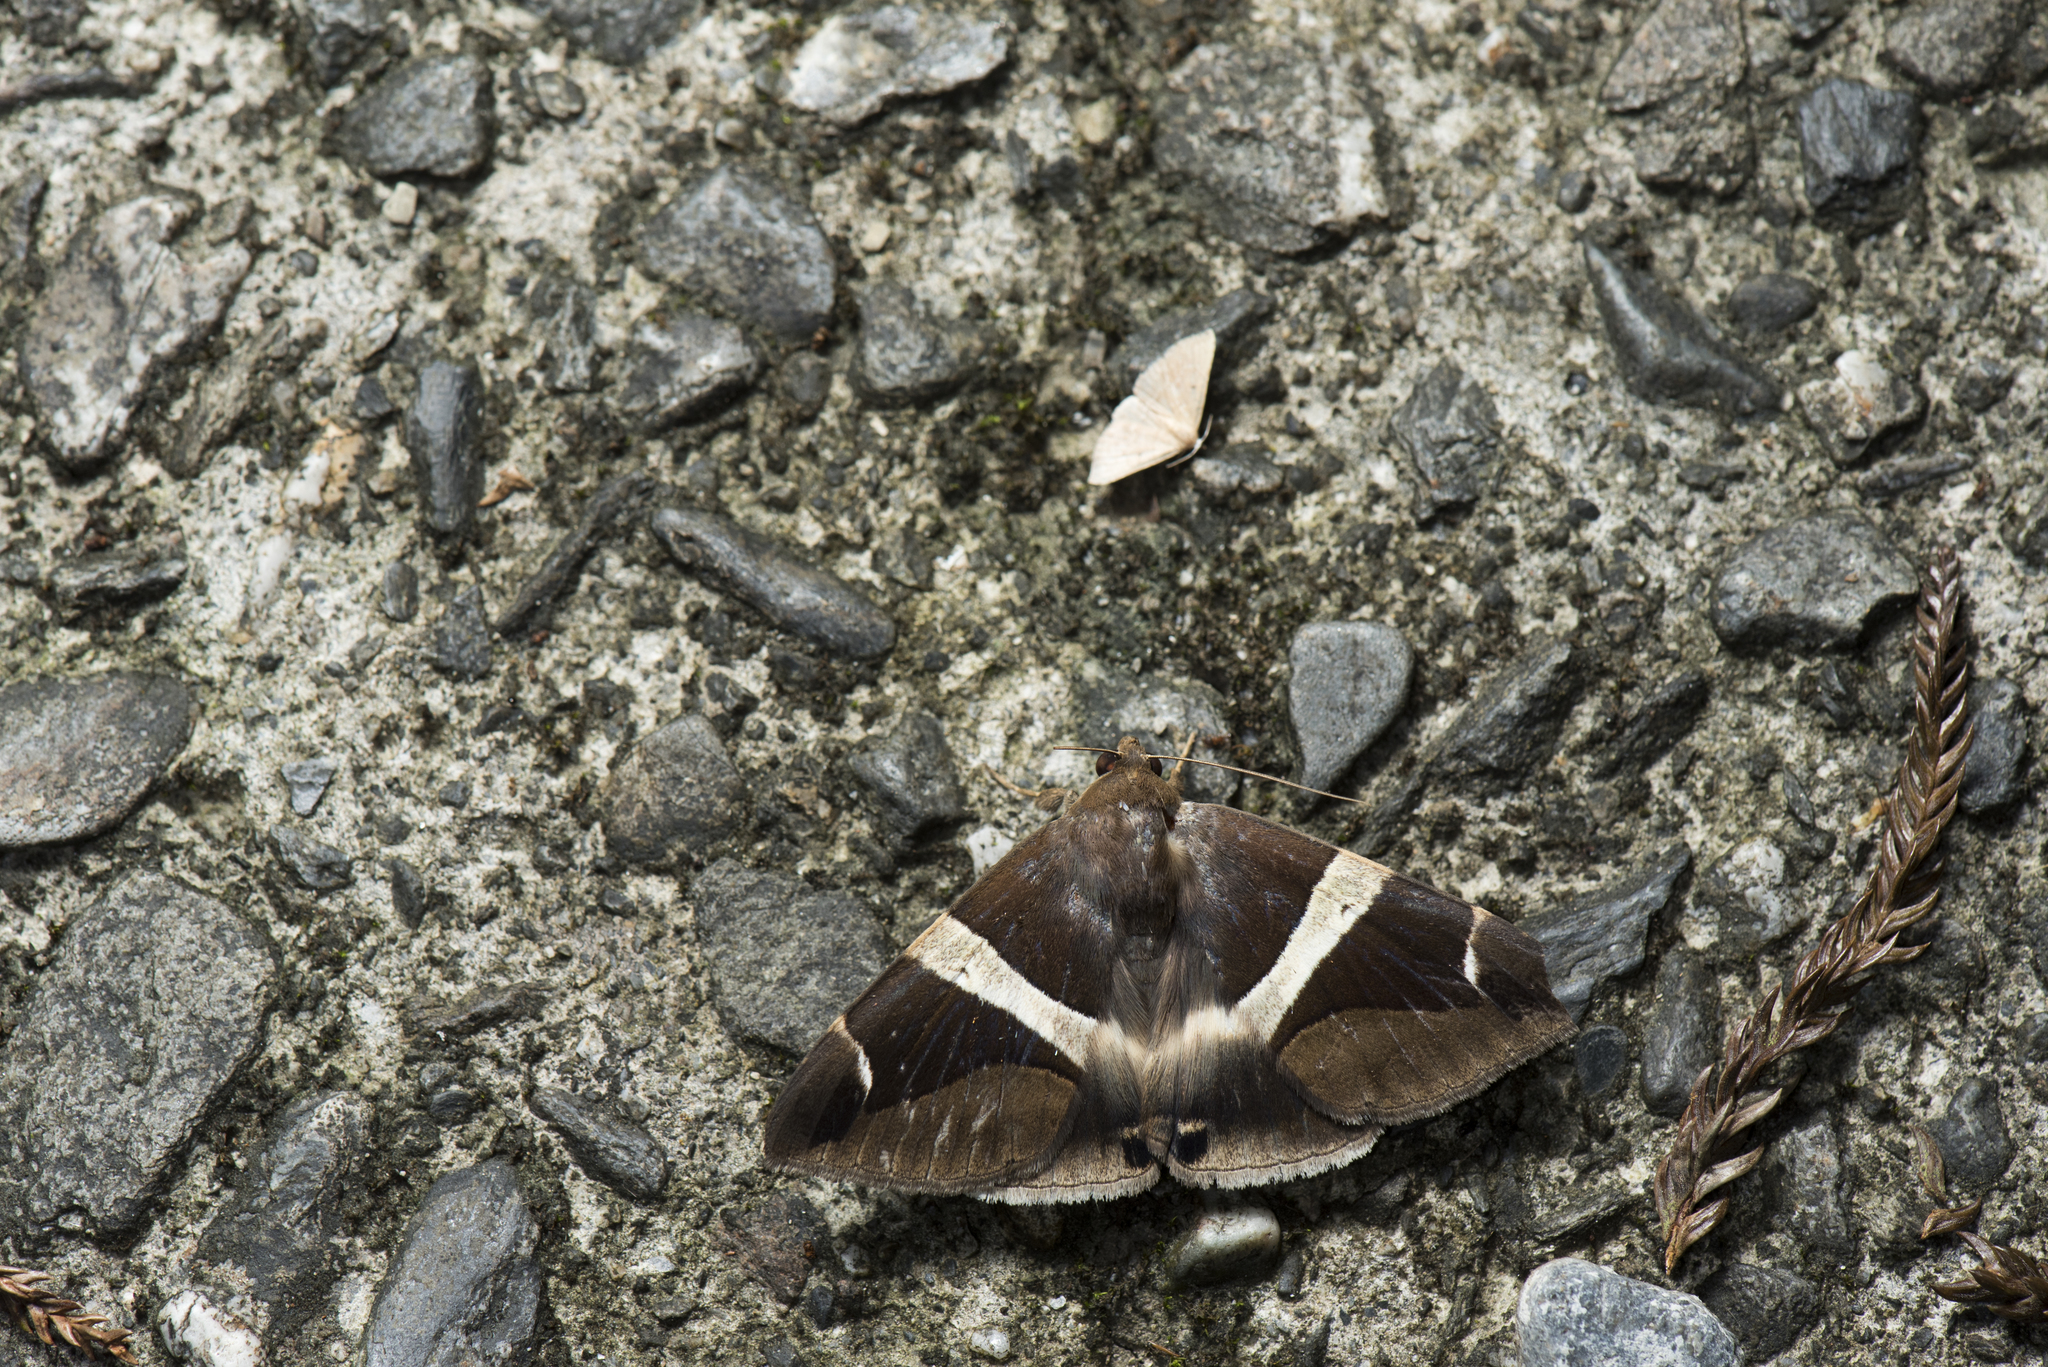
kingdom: Animalia
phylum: Arthropoda
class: Insecta
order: Lepidoptera
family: Erebidae
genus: Dysgonia
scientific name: Dysgonia praetermissa
